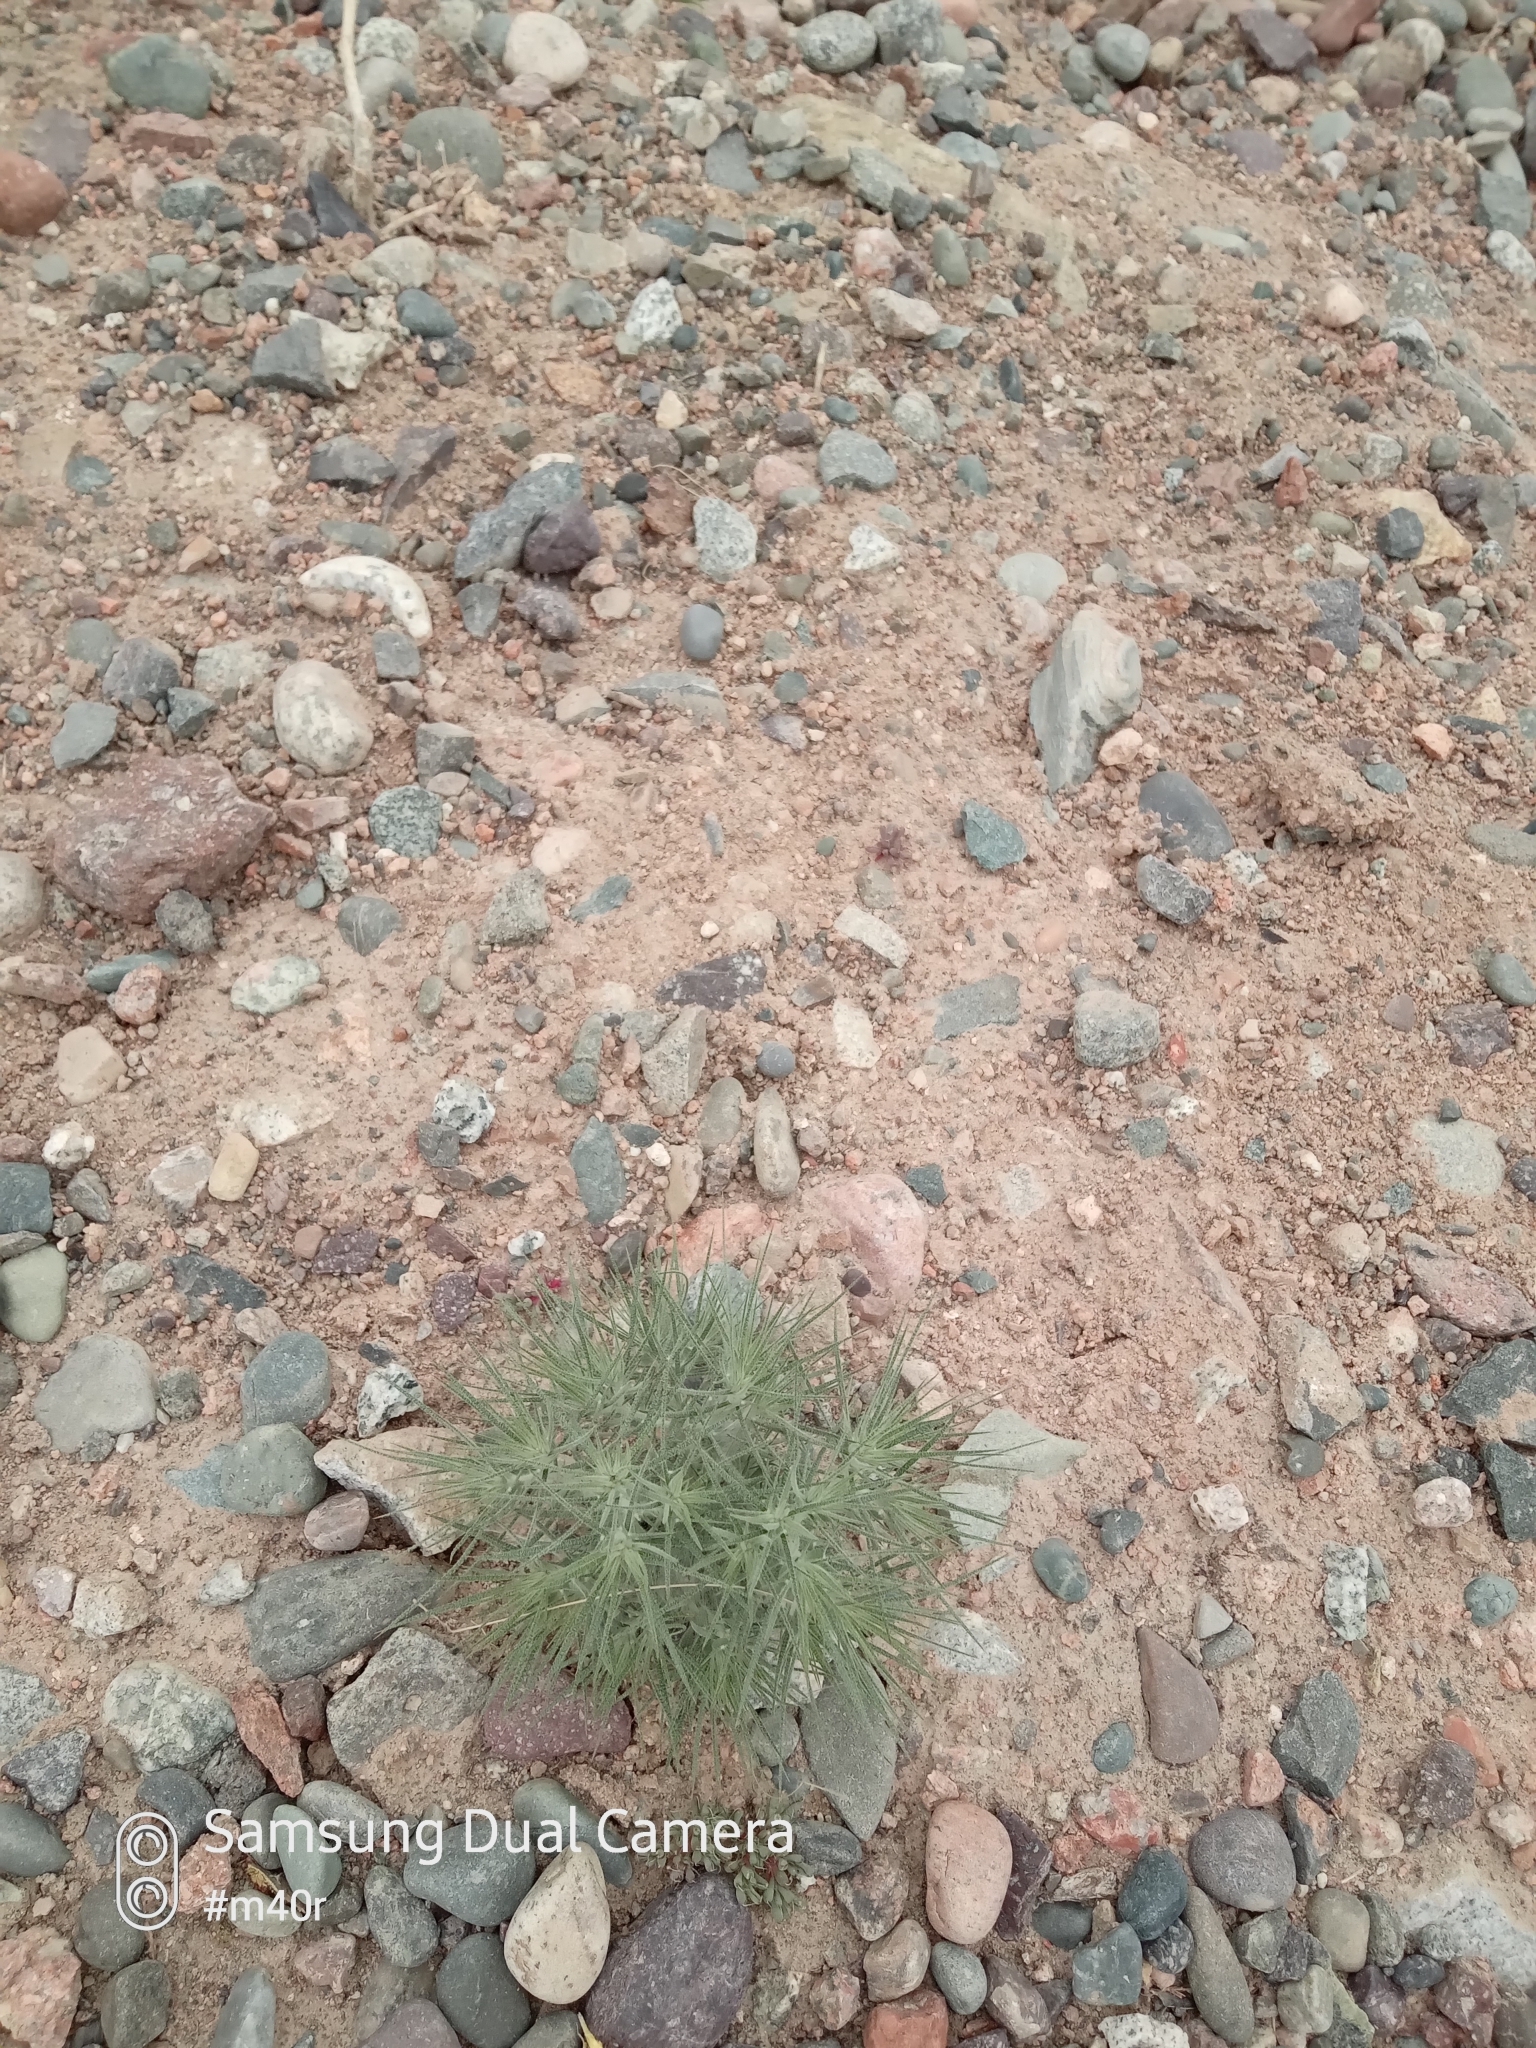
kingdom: Plantae
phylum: Tracheophyta
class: Magnoliopsida
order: Caryophyllales
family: Amaranthaceae
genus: Ceratocarpus
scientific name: Ceratocarpus arenarius
